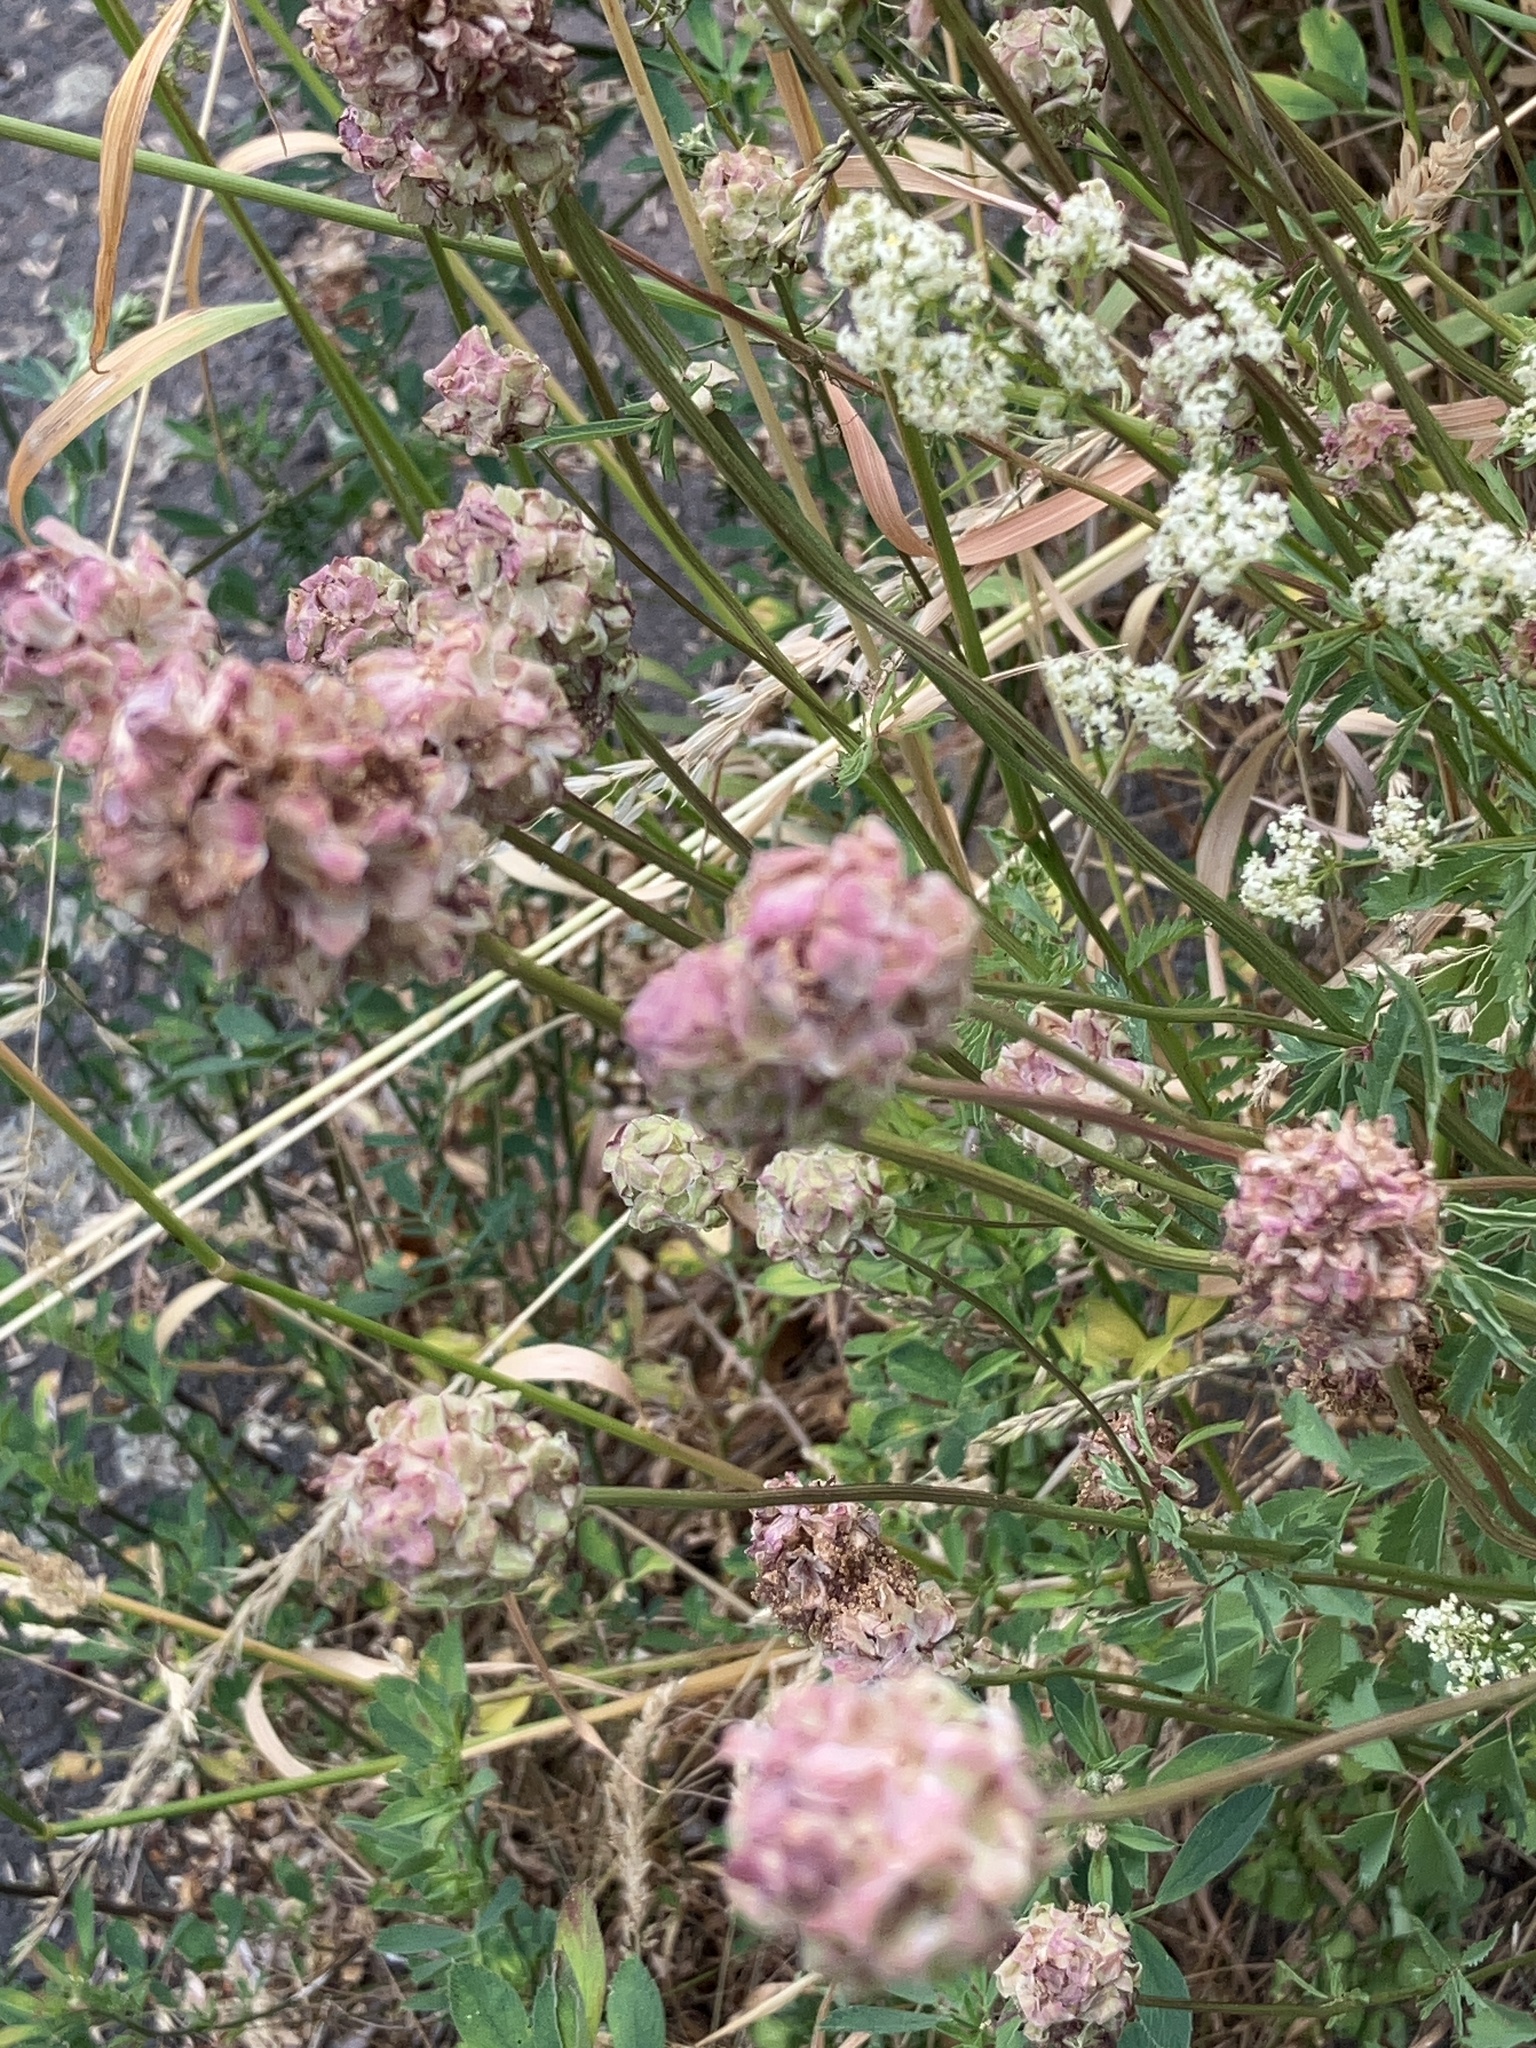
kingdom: Plantae
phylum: Tracheophyta
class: Magnoliopsida
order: Rosales
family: Rosaceae
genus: Poterium
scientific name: Poterium sanguisorba
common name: Salad burnet
